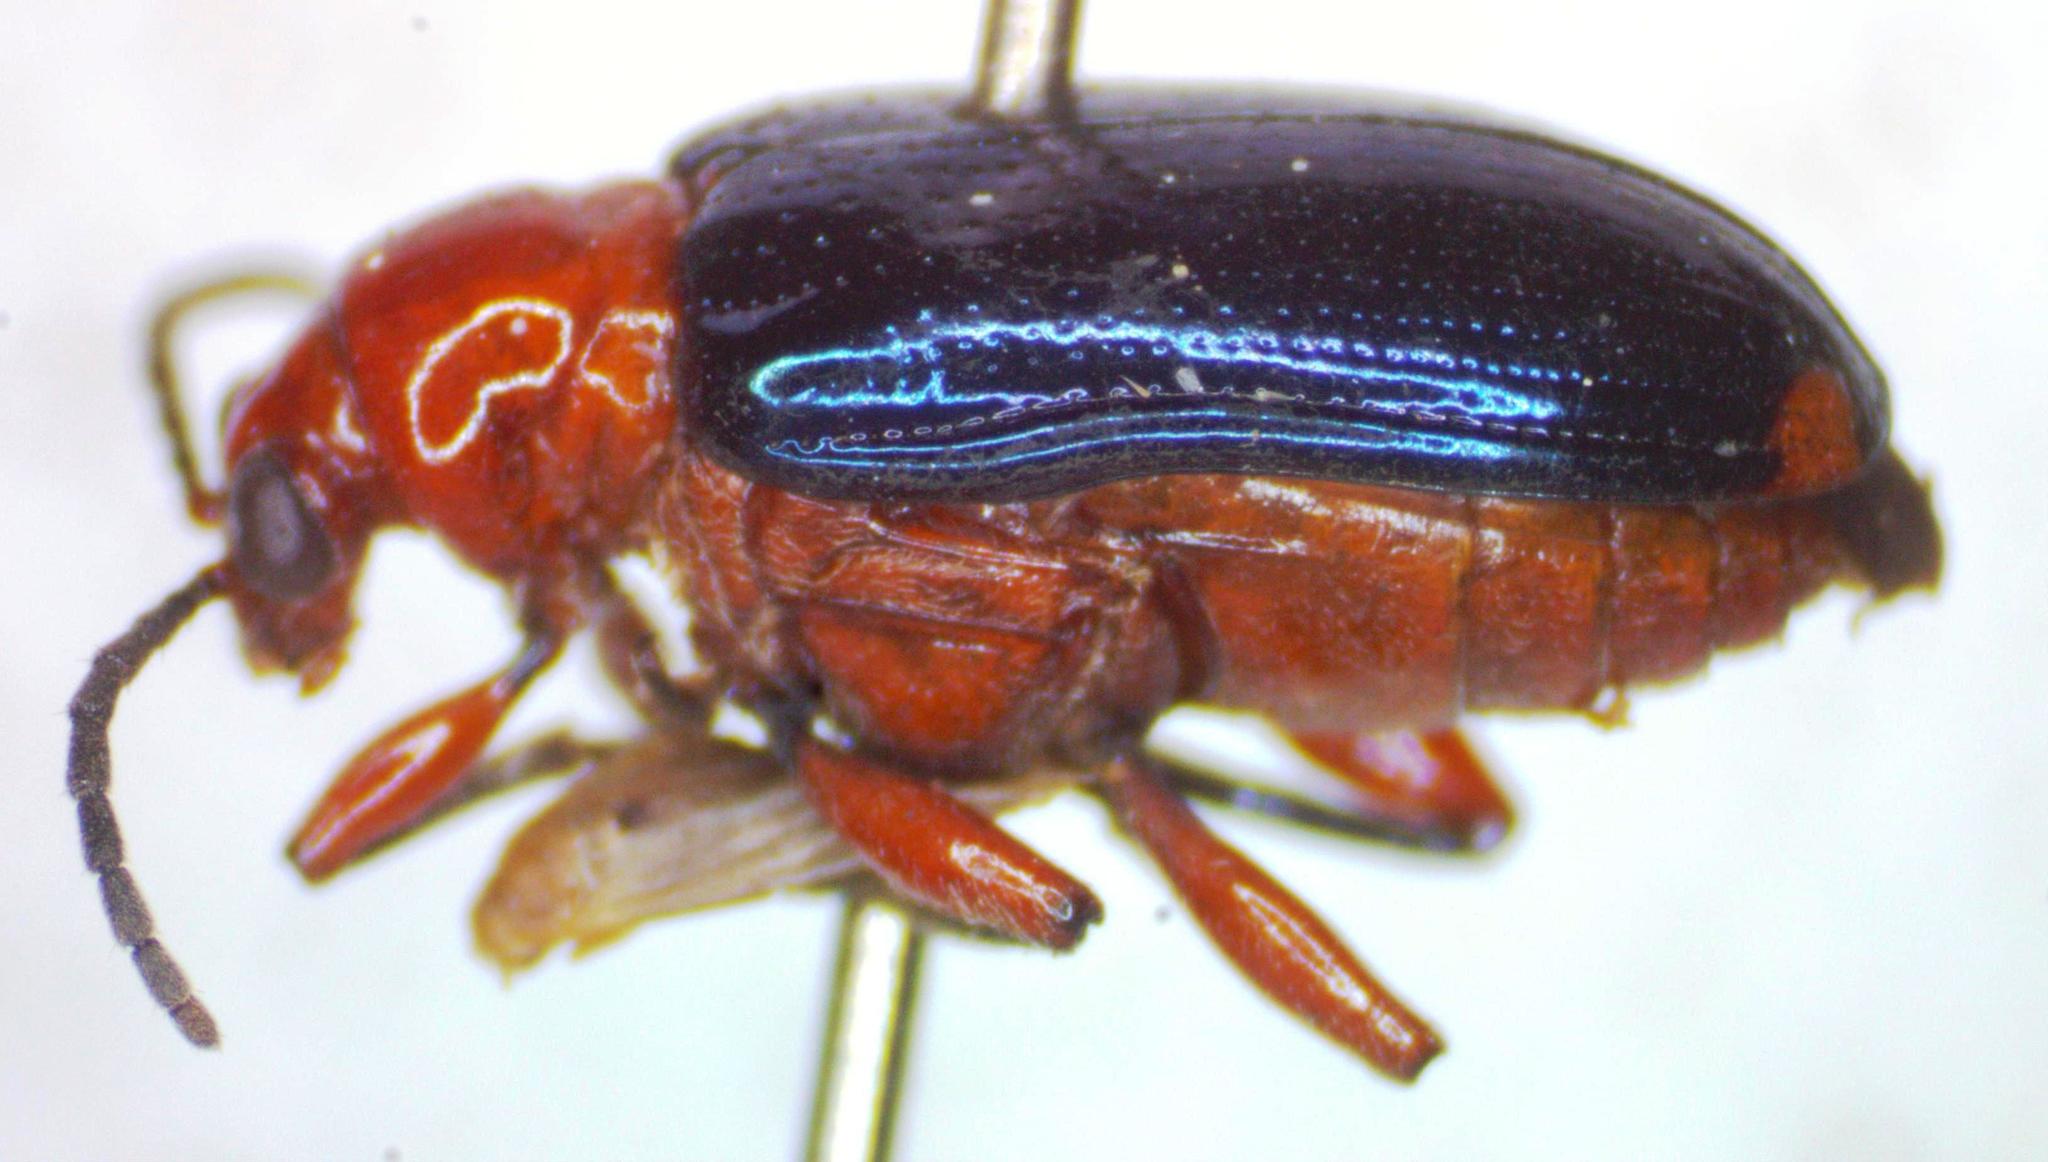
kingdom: Animalia
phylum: Arthropoda
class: Insecta
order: Coleoptera
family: Chrysomelidae
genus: Lema
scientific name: Lema bouchardi
